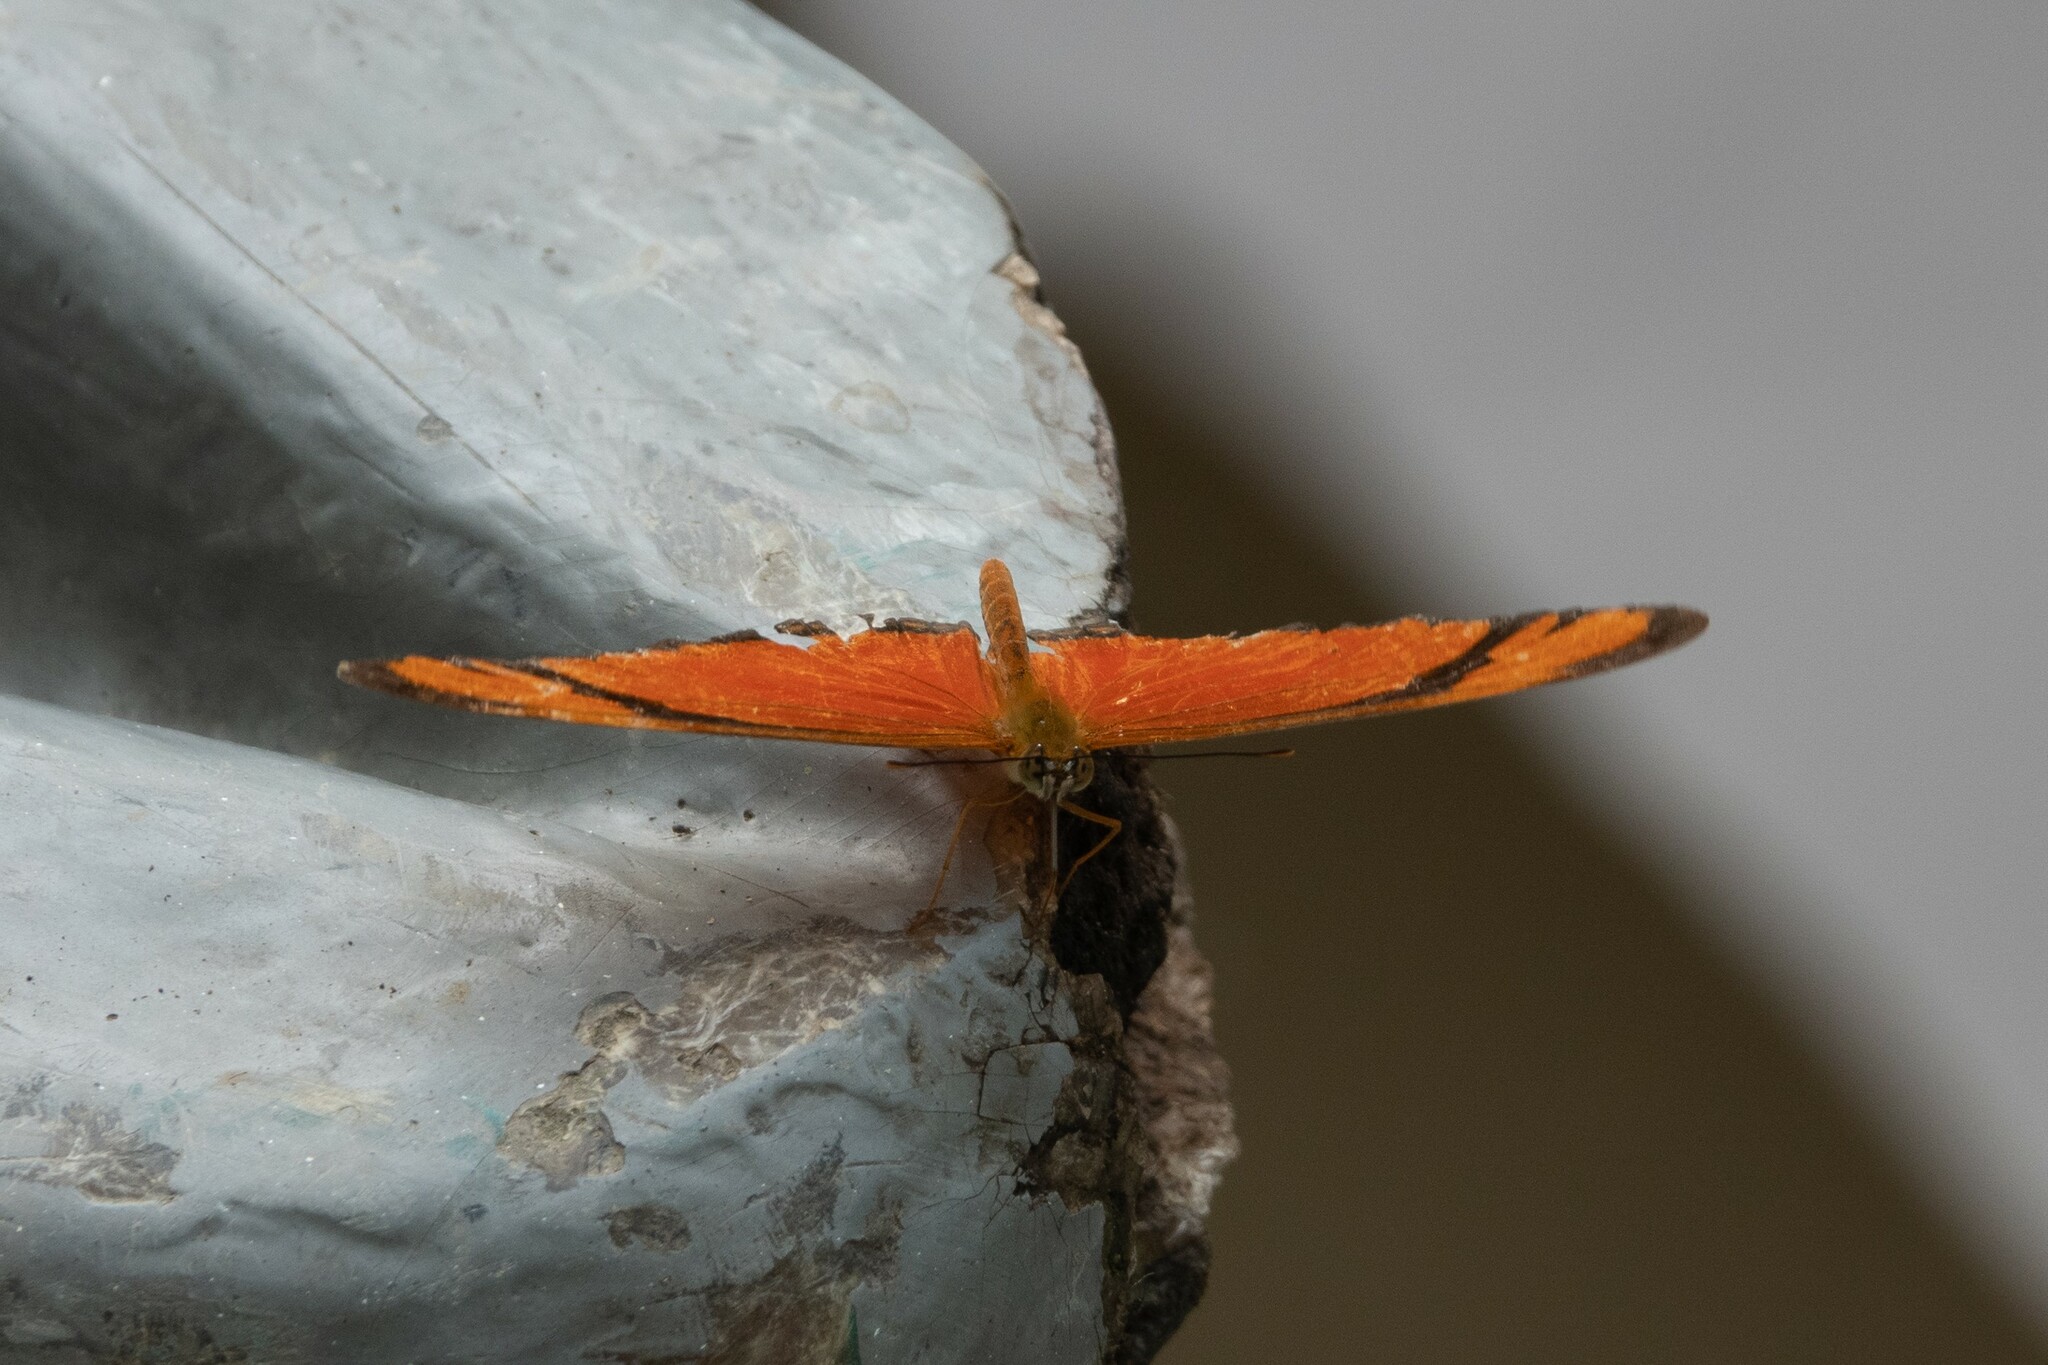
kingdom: Animalia
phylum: Arthropoda
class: Insecta
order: Lepidoptera
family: Nymphalidae
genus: Dryas
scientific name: Dryas iulia
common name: Flambeau
